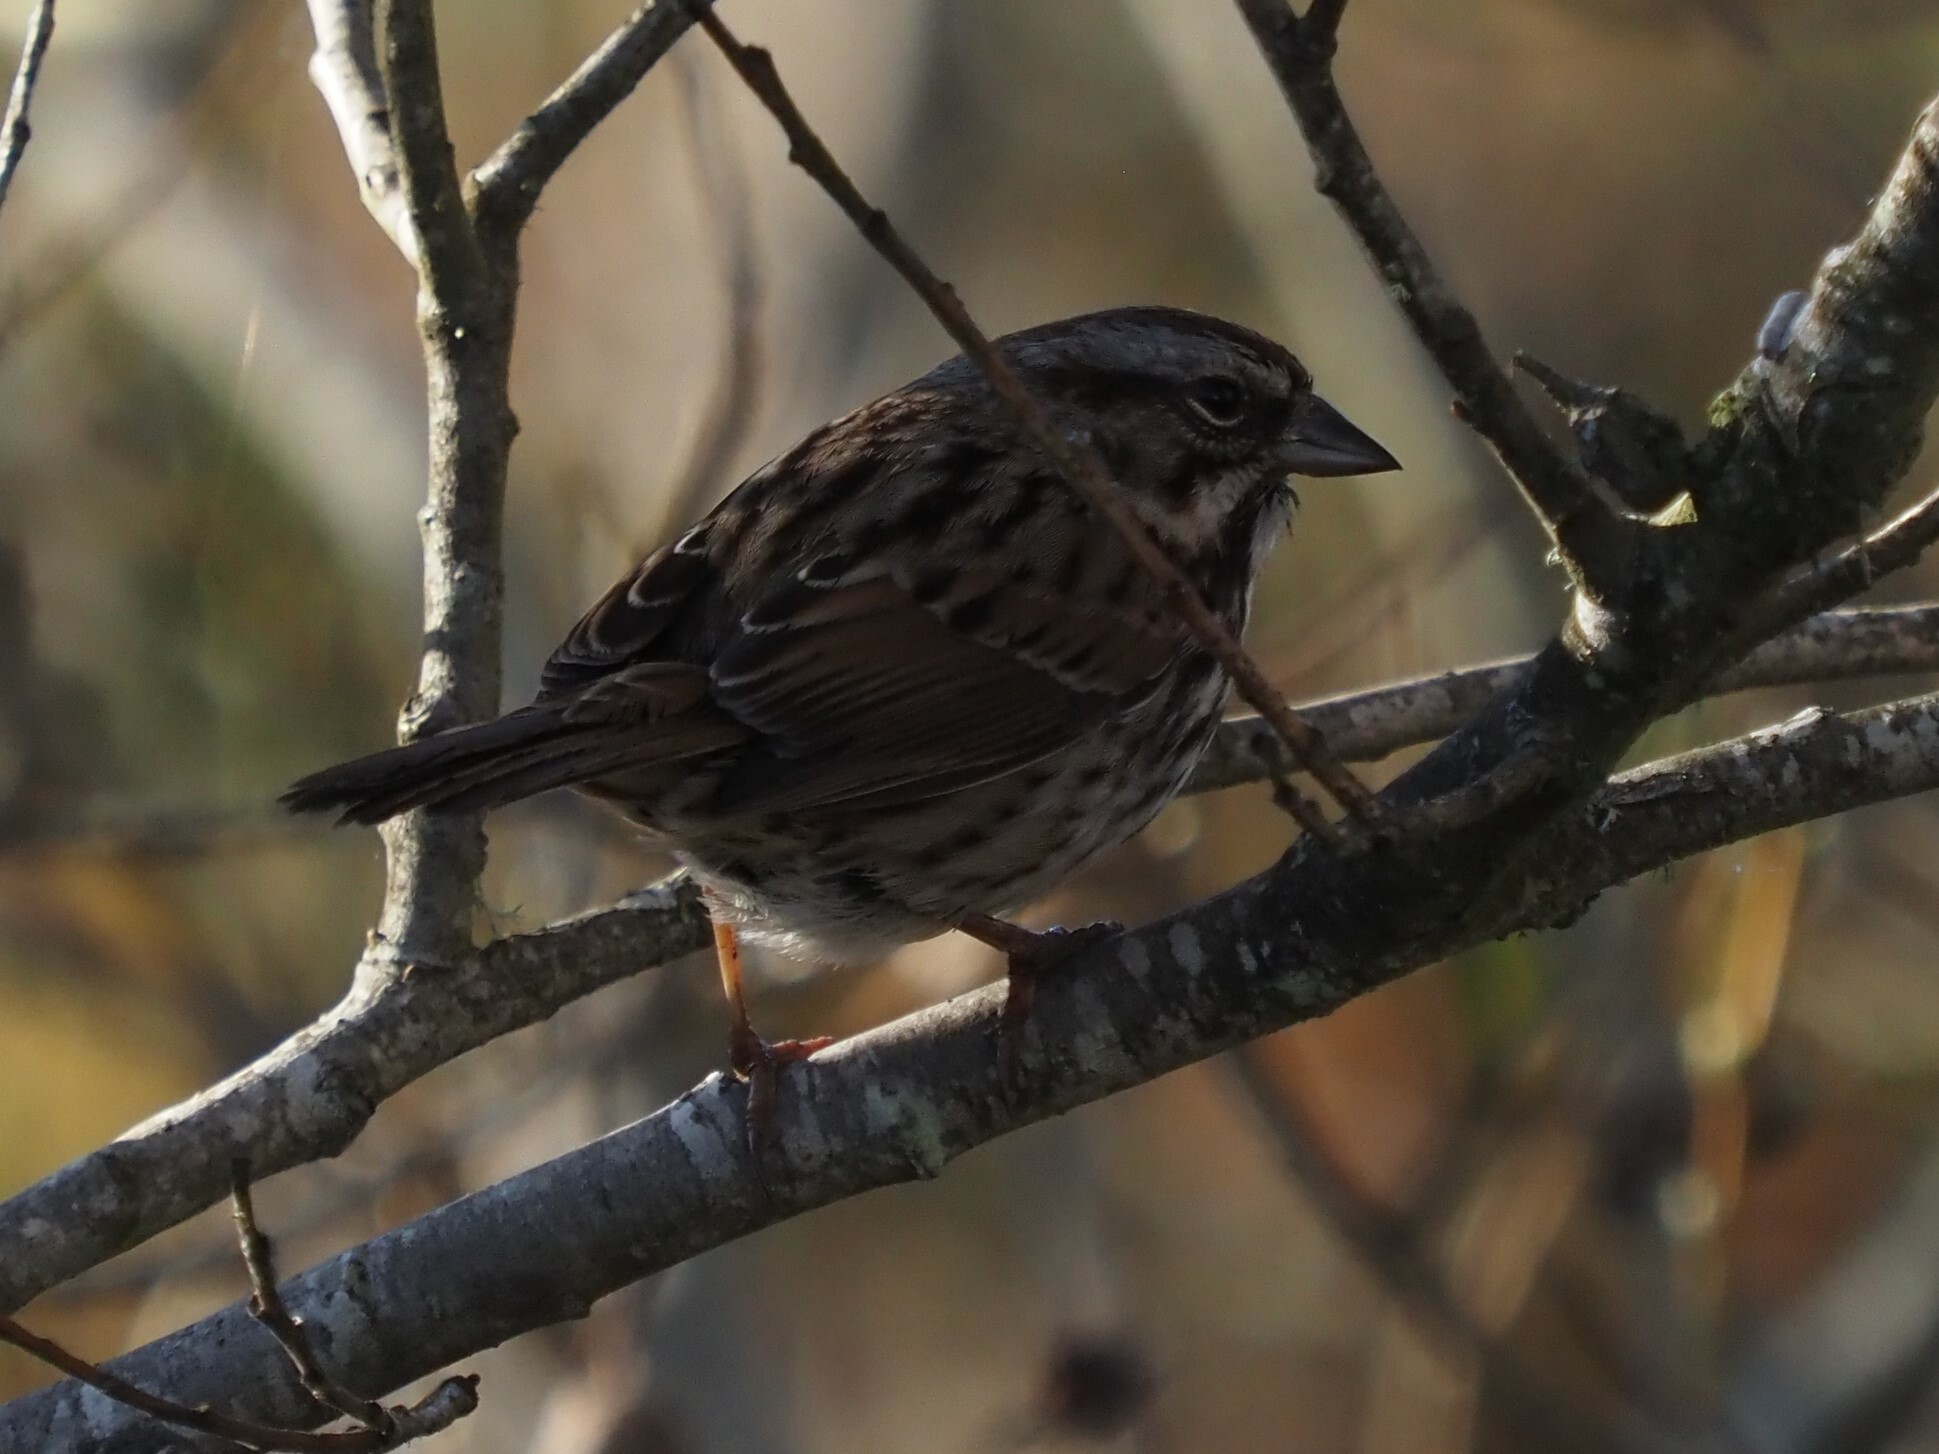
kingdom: Animalia
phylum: Chordata
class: Aves
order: Passeriformes
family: Passerellidae
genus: Melospiza
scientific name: Melospiza melodia
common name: Song sparrow
